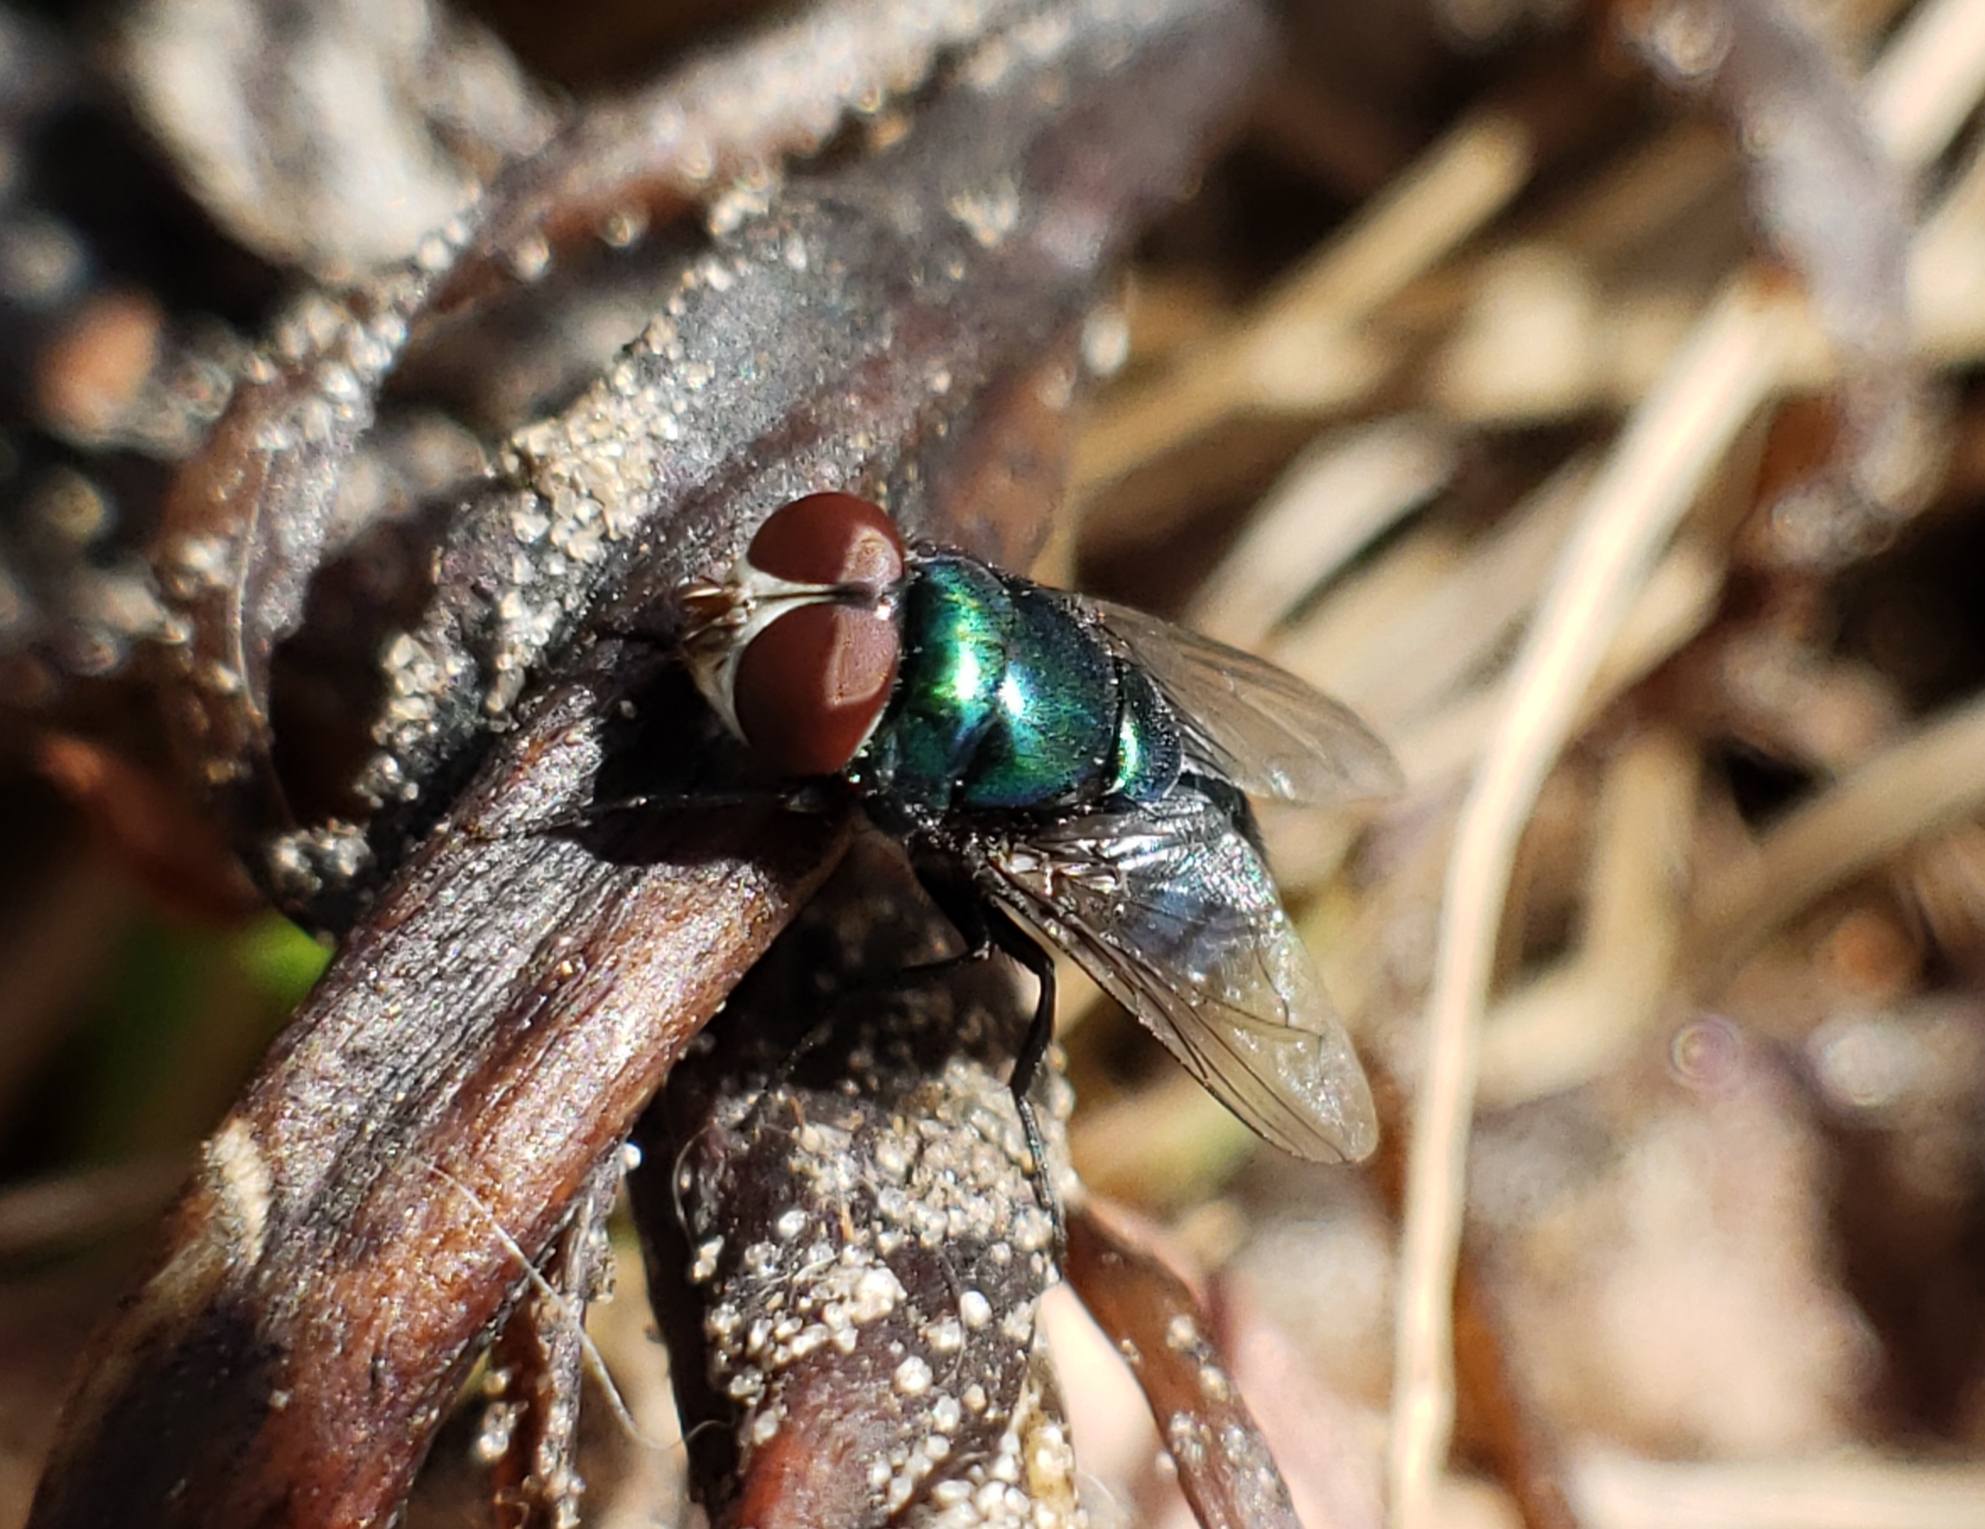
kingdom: Animalia
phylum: Arthropoda
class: Insecta
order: Diptera
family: Calliphoridae
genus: Chrysomya
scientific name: Chrysomya rufifacies
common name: Blow fly
